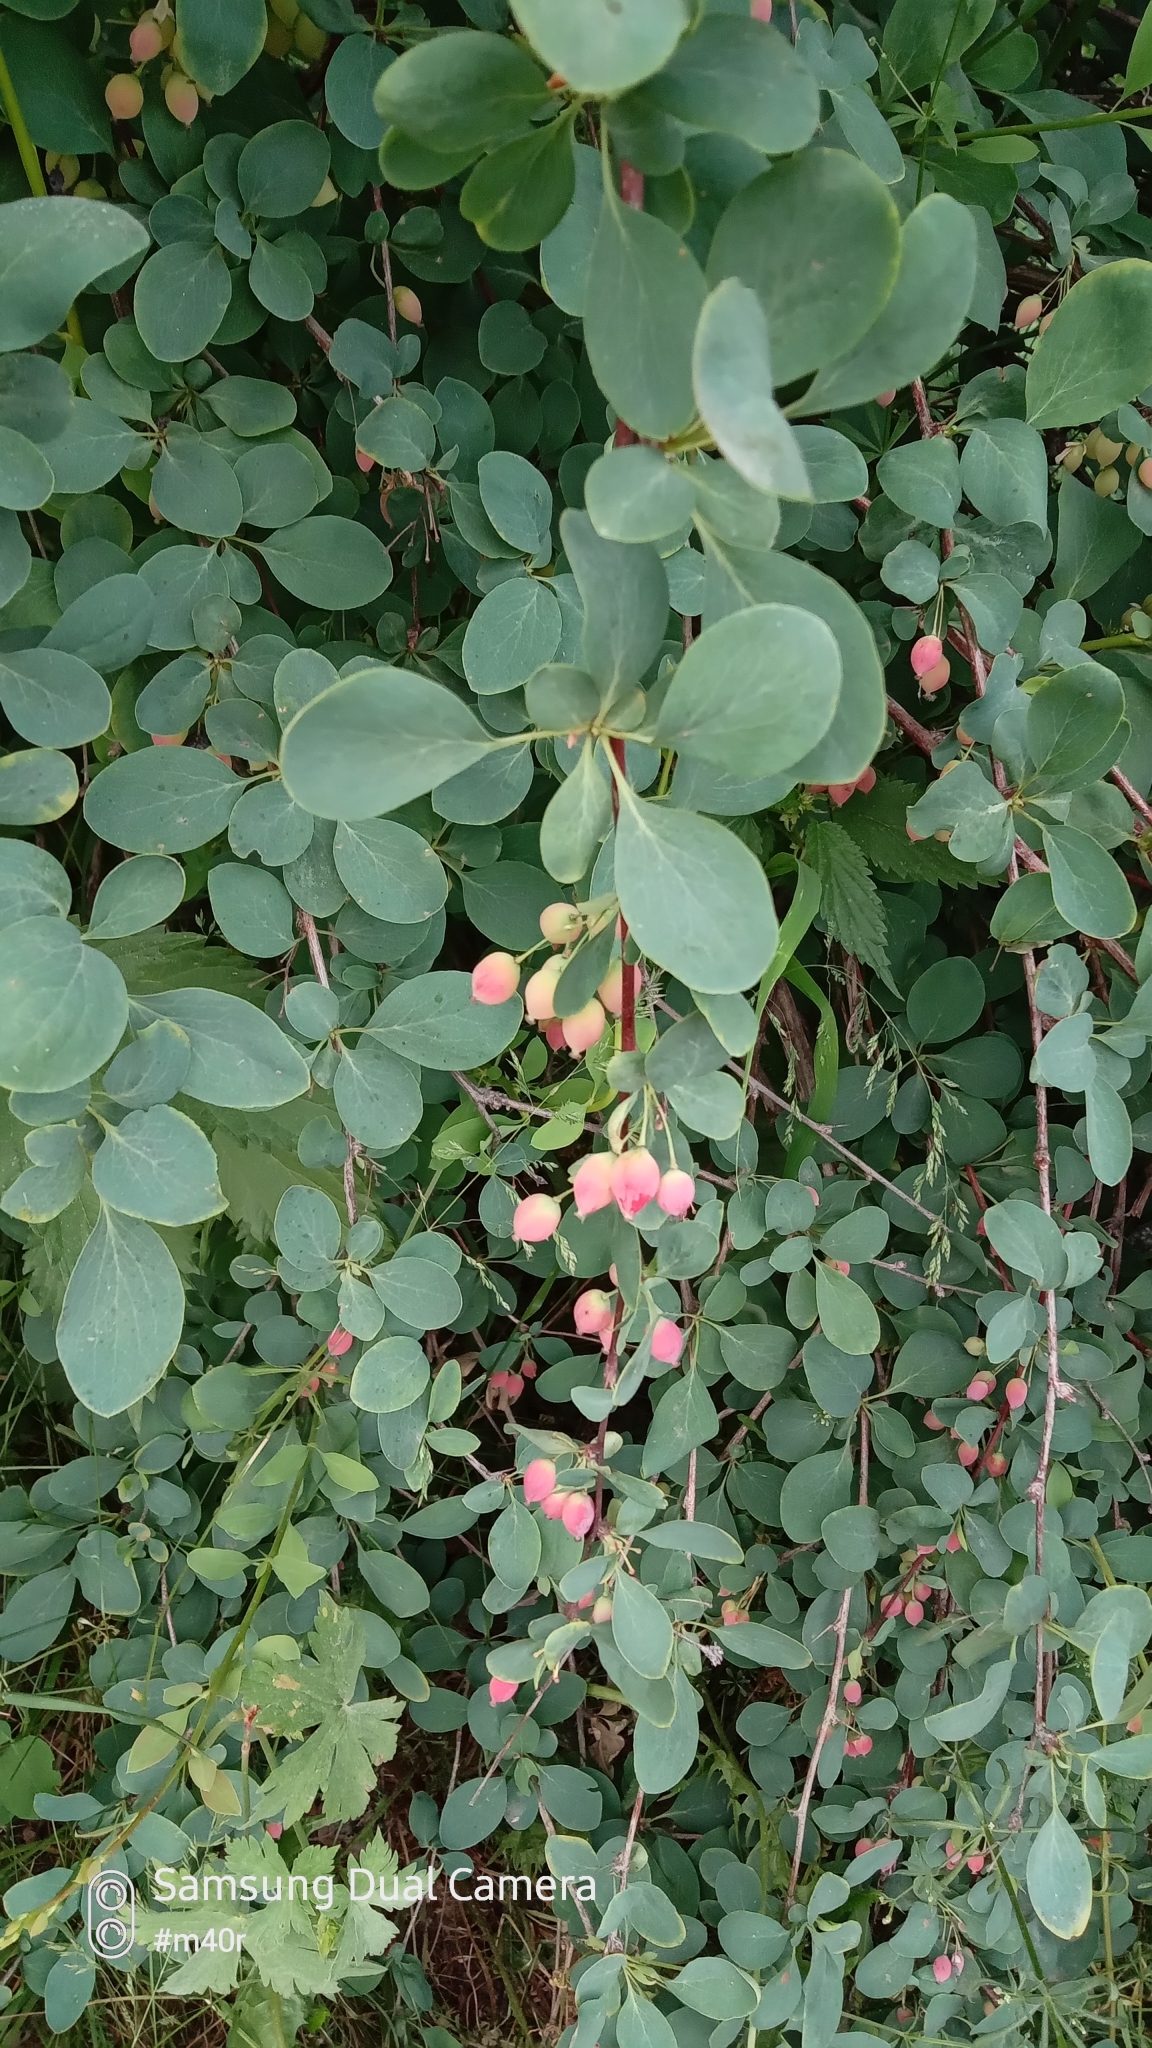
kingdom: Plantae
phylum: Tracheophyta
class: Magnoliopsida
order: Ranunculales
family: Berberidaceae
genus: Berberis
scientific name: Berberis heteropoda
